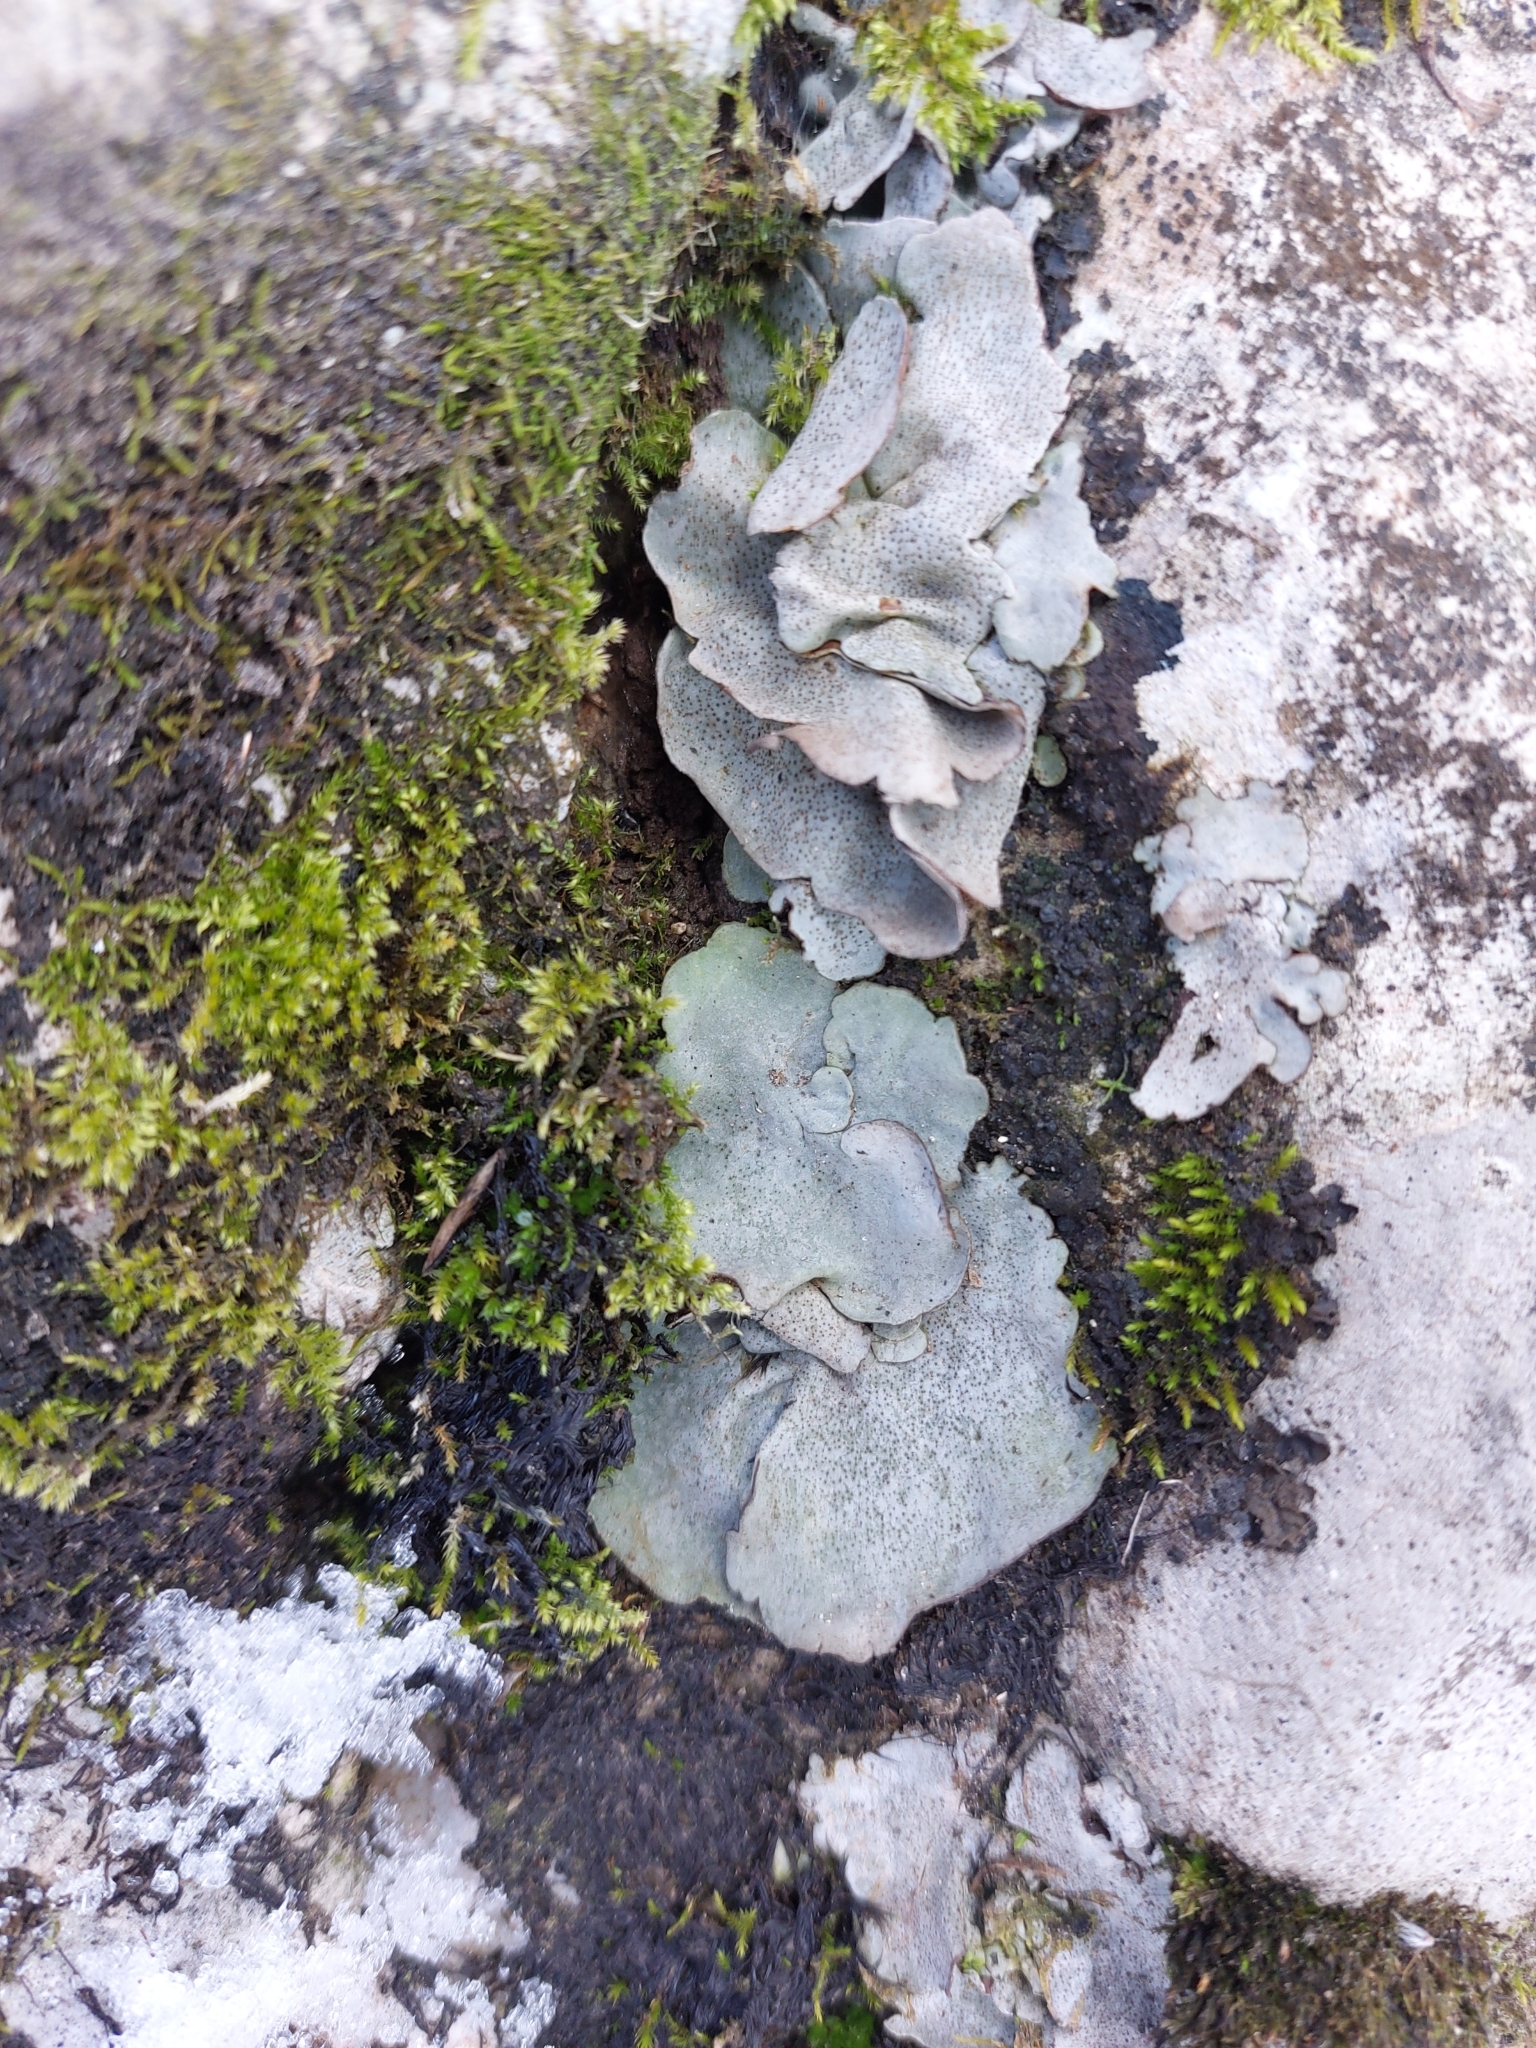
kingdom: Fungi
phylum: Ascomycota
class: Eurotiomycetes
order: Verrucariales
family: Verrucariaceae
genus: Dermatocarpon
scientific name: Dermatocarpon miniatum
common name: Leather lichen
